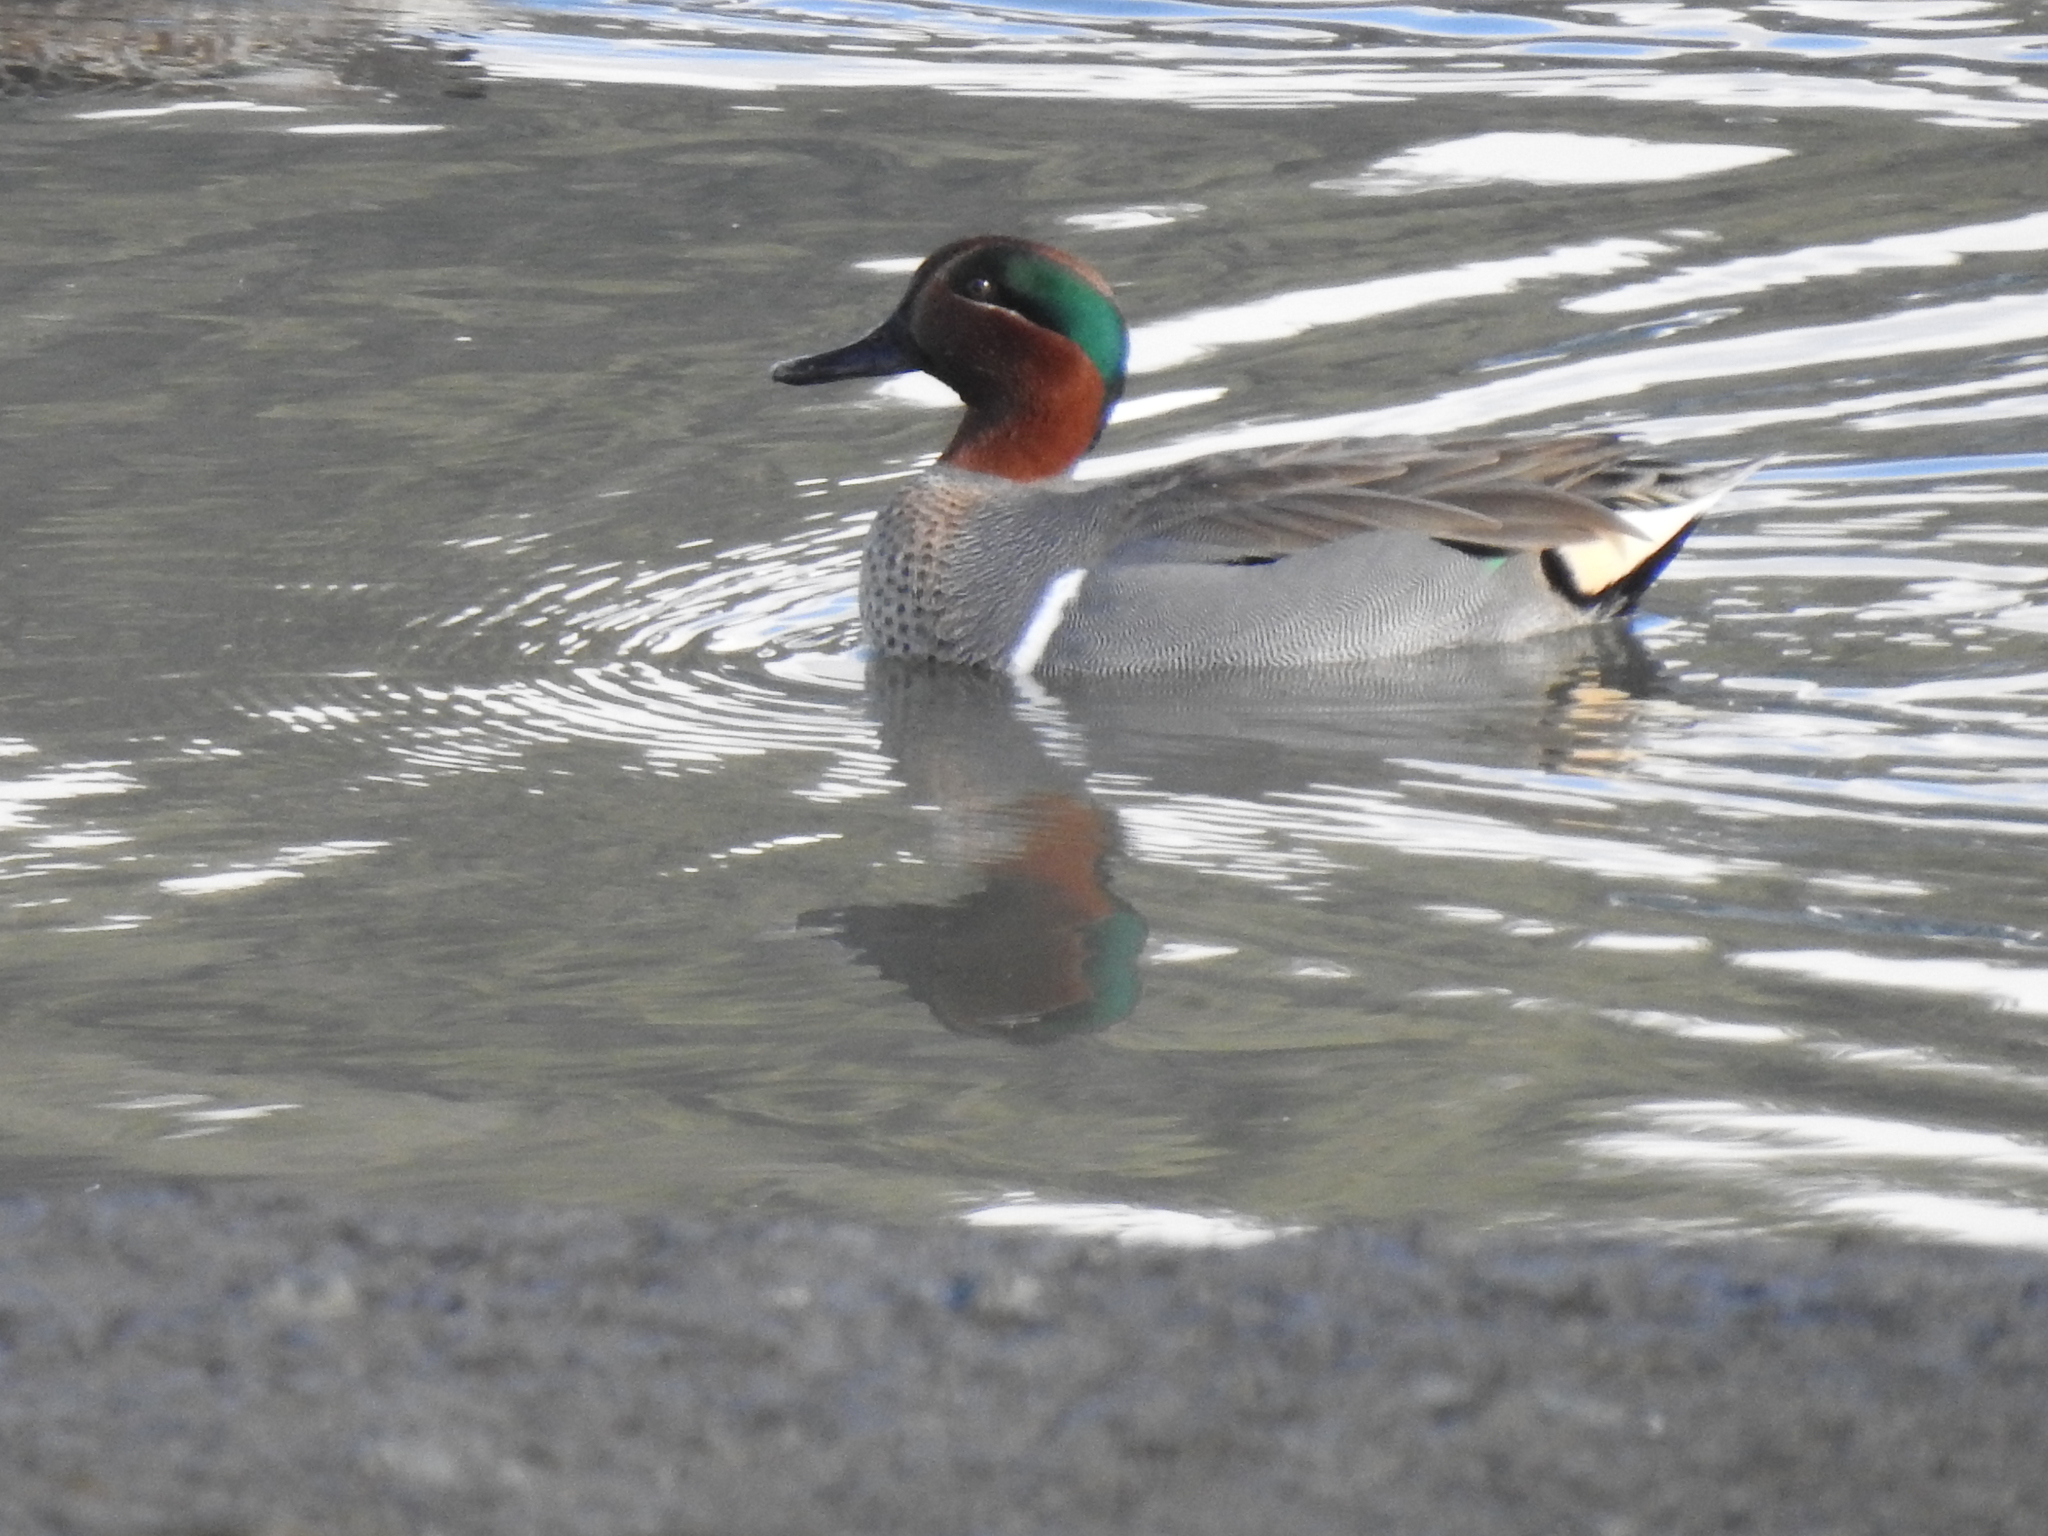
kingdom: Animalia
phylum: Chordata
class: Aves
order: Anseriformes
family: Anatidae
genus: Anas
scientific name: Anas crecca
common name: Eurasian teal
